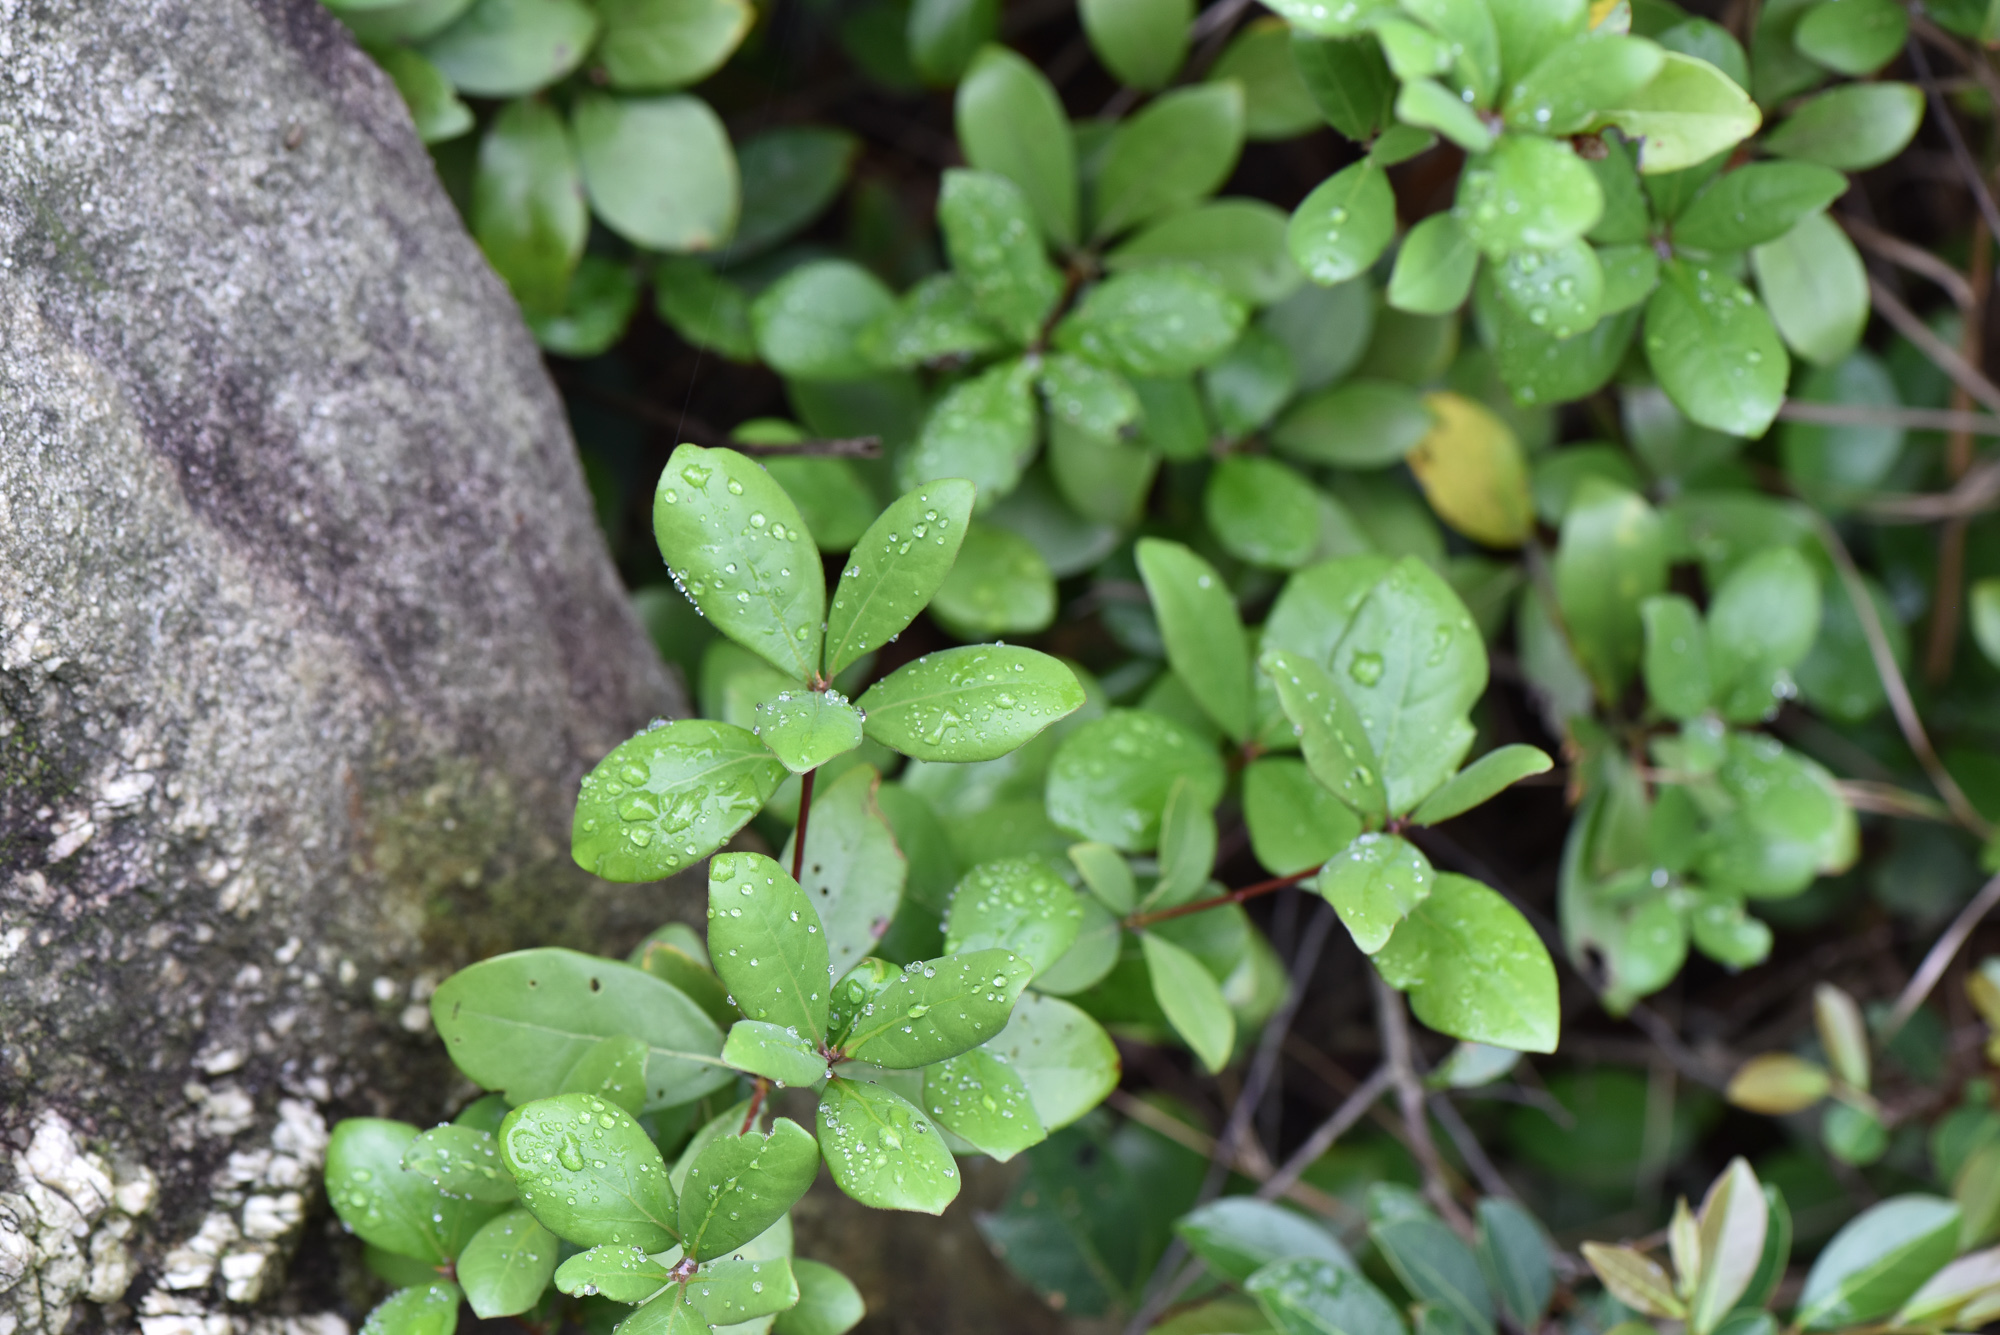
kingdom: Plantae
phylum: Tracheophyta
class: Magnoliopsida
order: Laurales
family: Lauraceae
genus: Litsea
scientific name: Litsea rotundifolia
